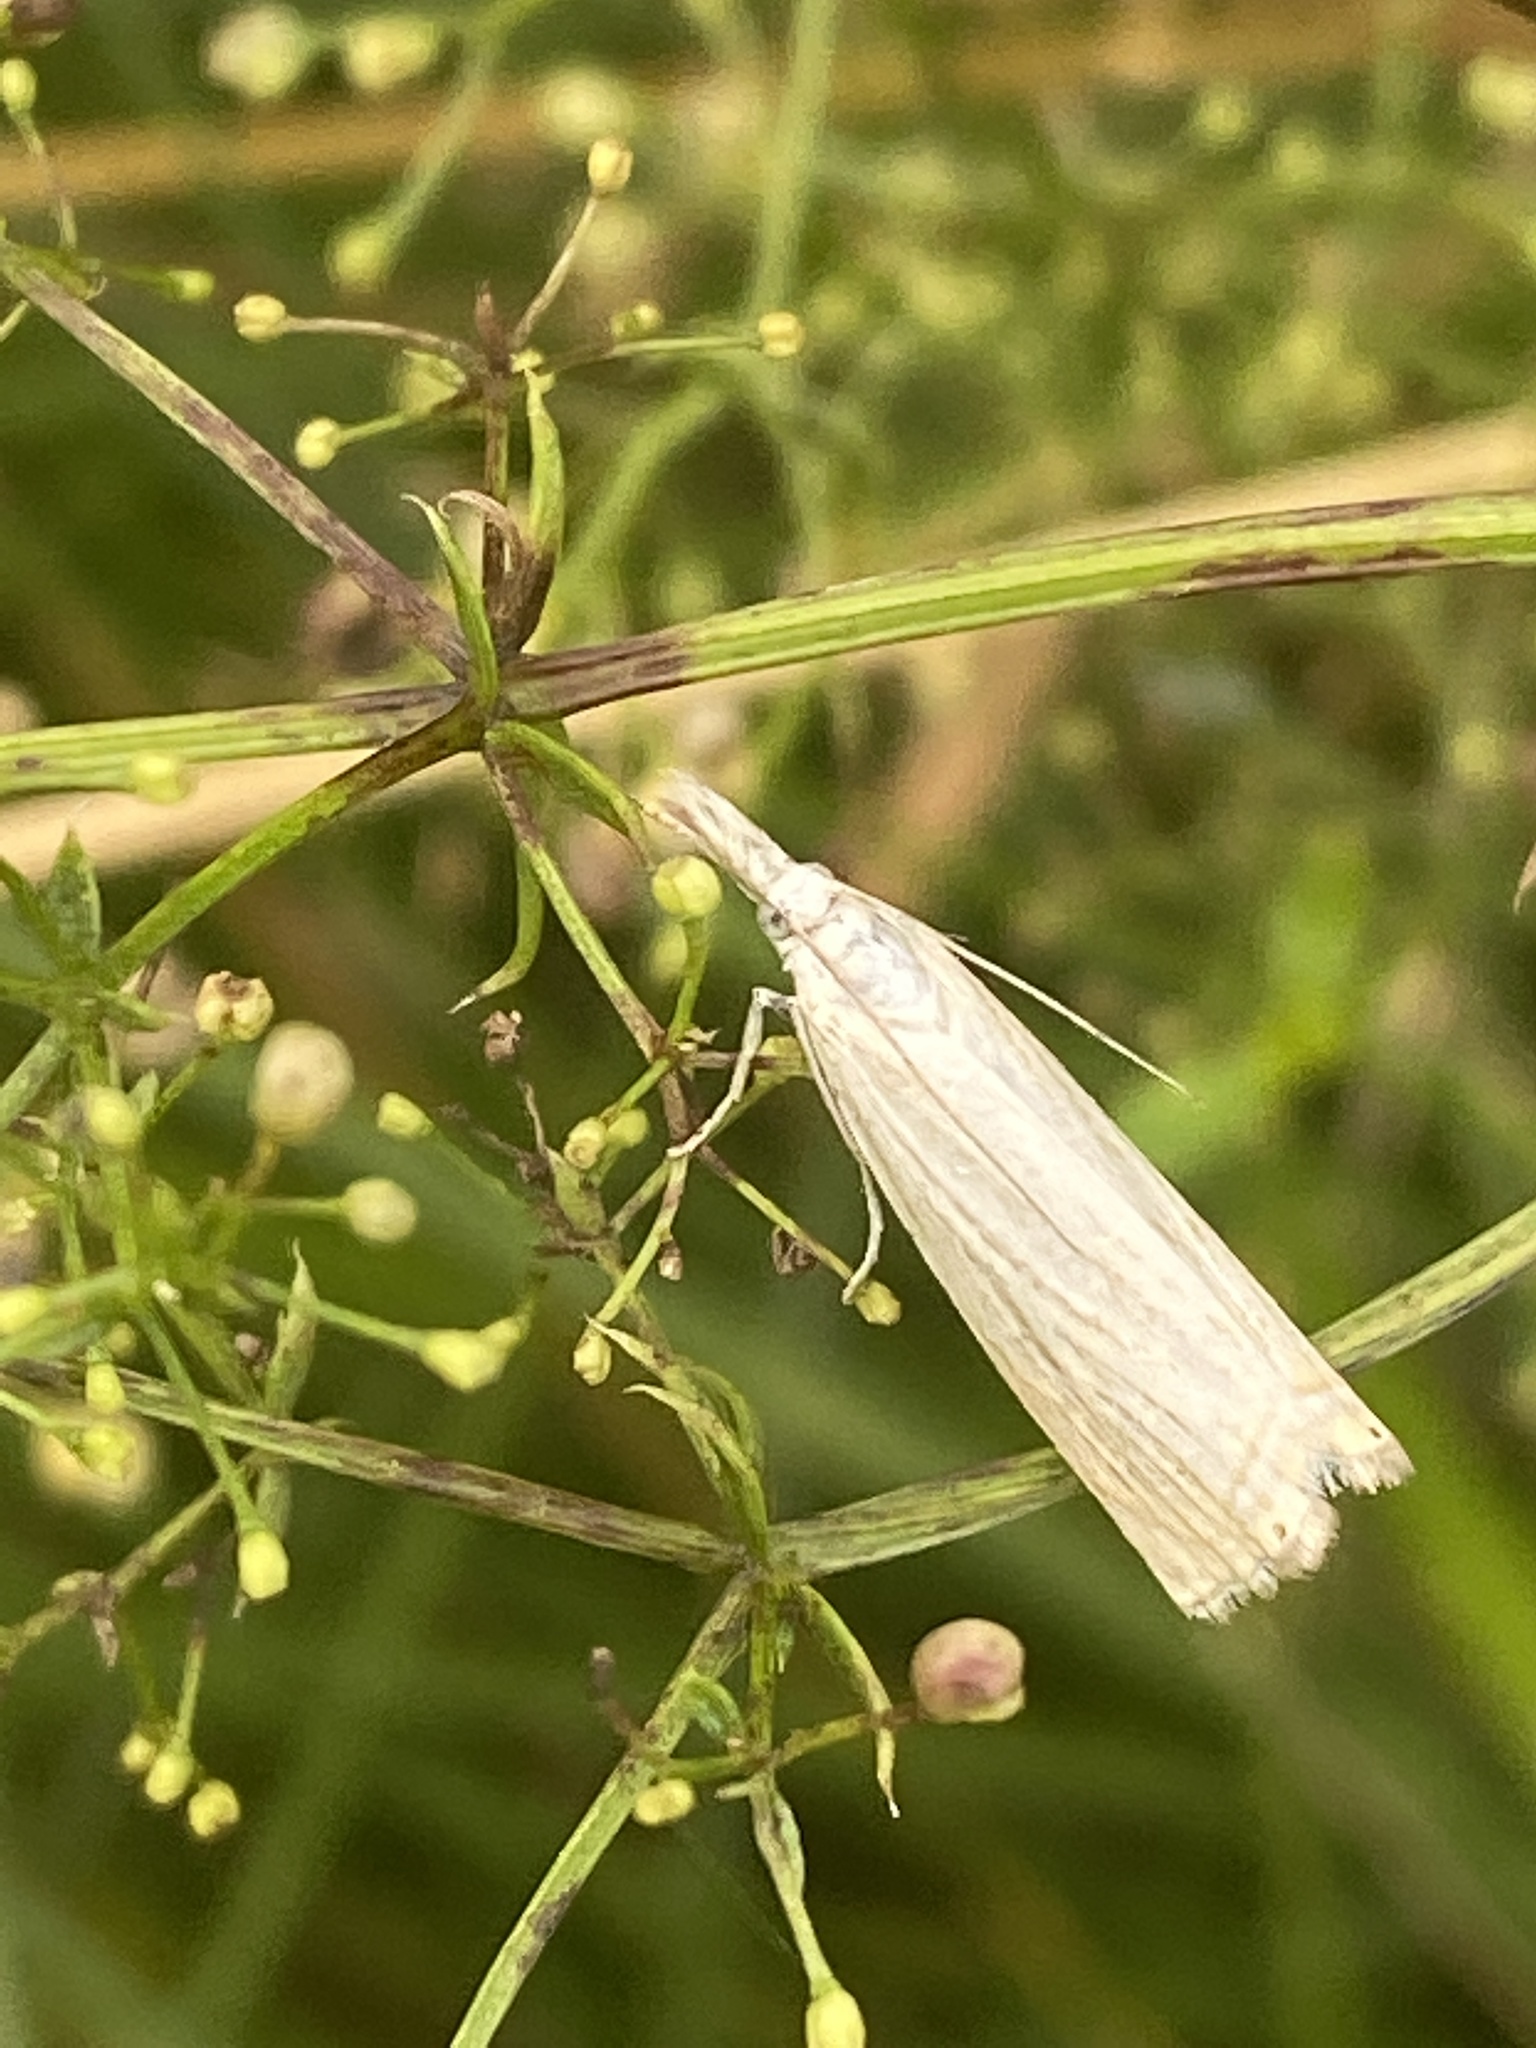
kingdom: Animalia
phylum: Arthropoda
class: Insecta
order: Lepidoptera
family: Crambidae
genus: Chrysoteuchia
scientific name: Chrysoteuchia culmella
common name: Garden grass-veneer
